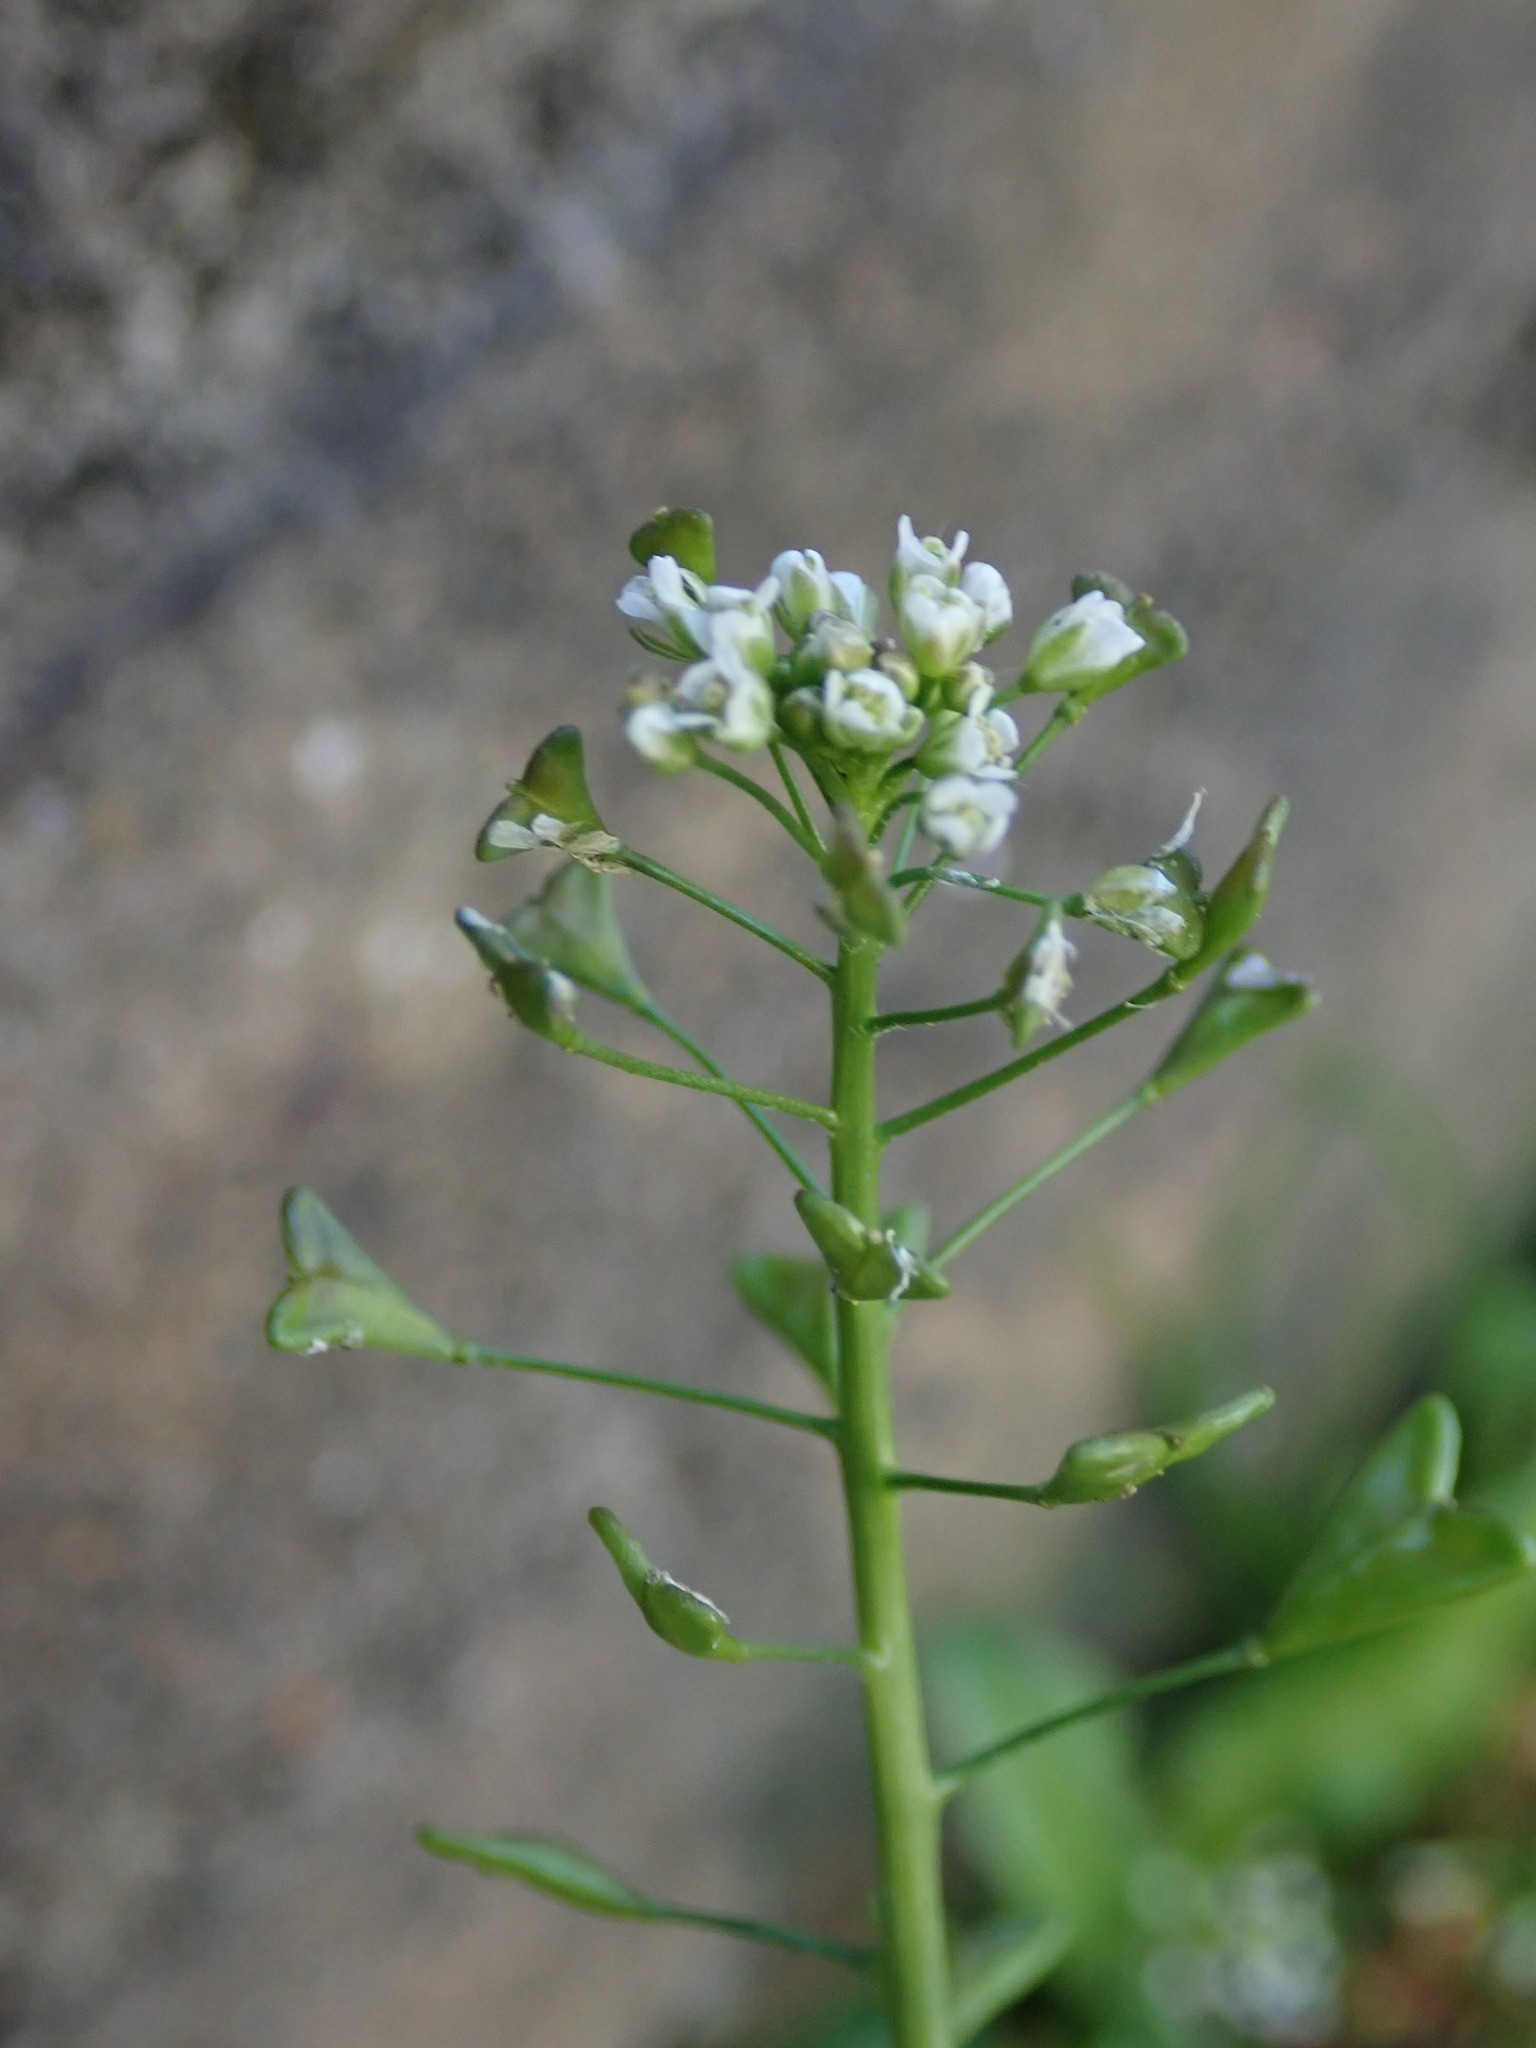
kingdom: Plantae
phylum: Tracheophyta
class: Magnoliopsida
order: Brassicales
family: Brassicaceae
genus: Capsella
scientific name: Capsella bursa-pastoris
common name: Shepherd's purse
